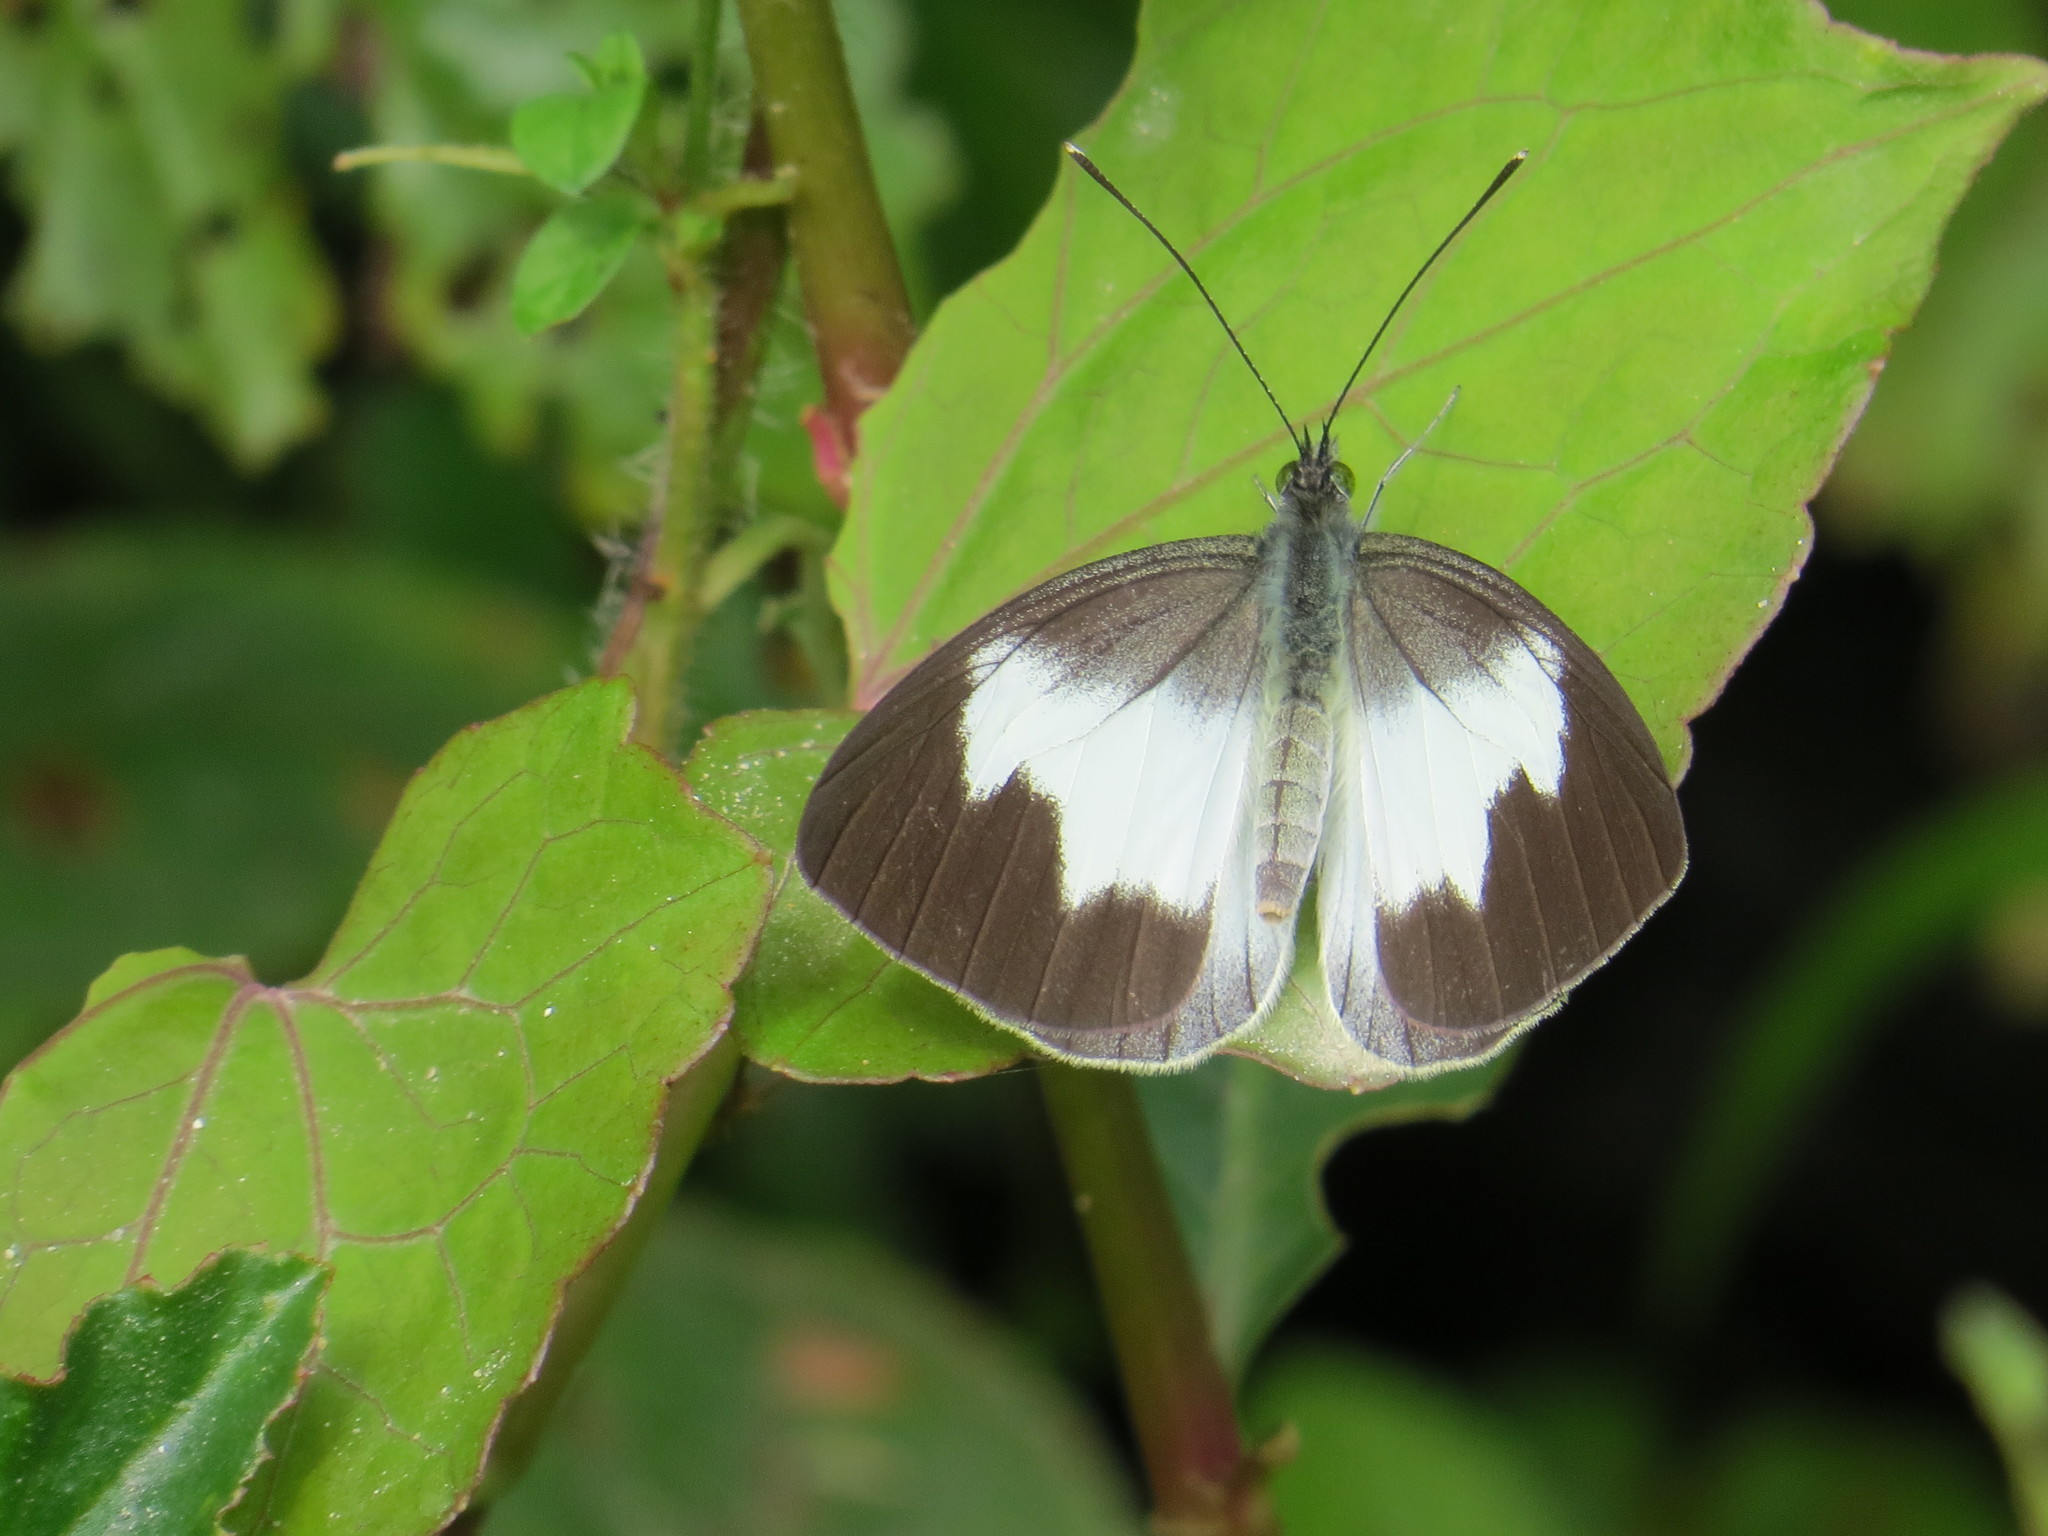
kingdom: Animalia
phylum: Arthropoda
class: Insecta
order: Lepidoptera
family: Pieridae
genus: Leptophobia
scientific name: Leptophobia tovaria
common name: Tovaria white
